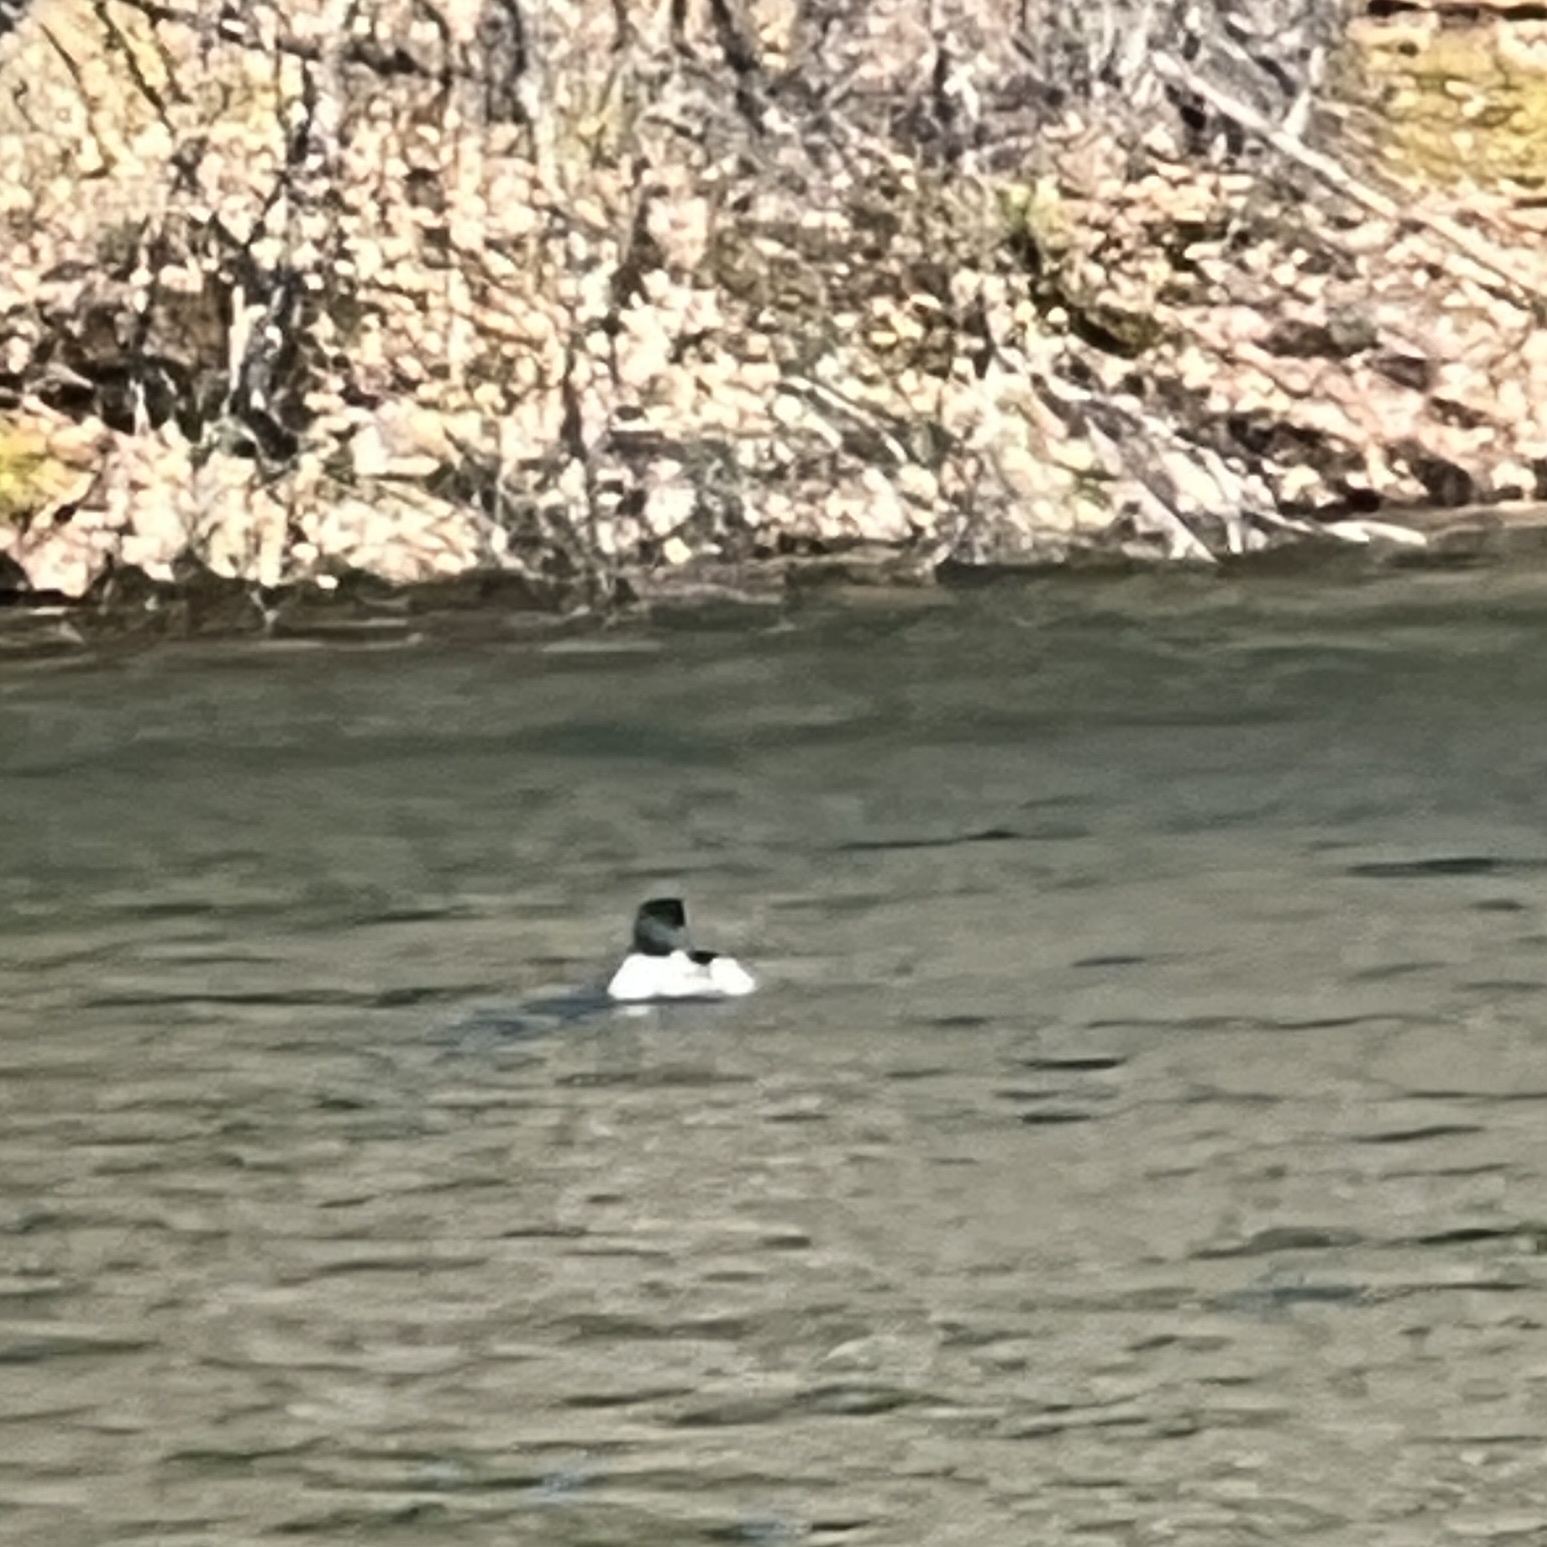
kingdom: Animalia
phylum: Chordata
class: Aves
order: Anseriformes
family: Anatidae
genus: Mergus
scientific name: Mergus merganser
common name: Common merganser
